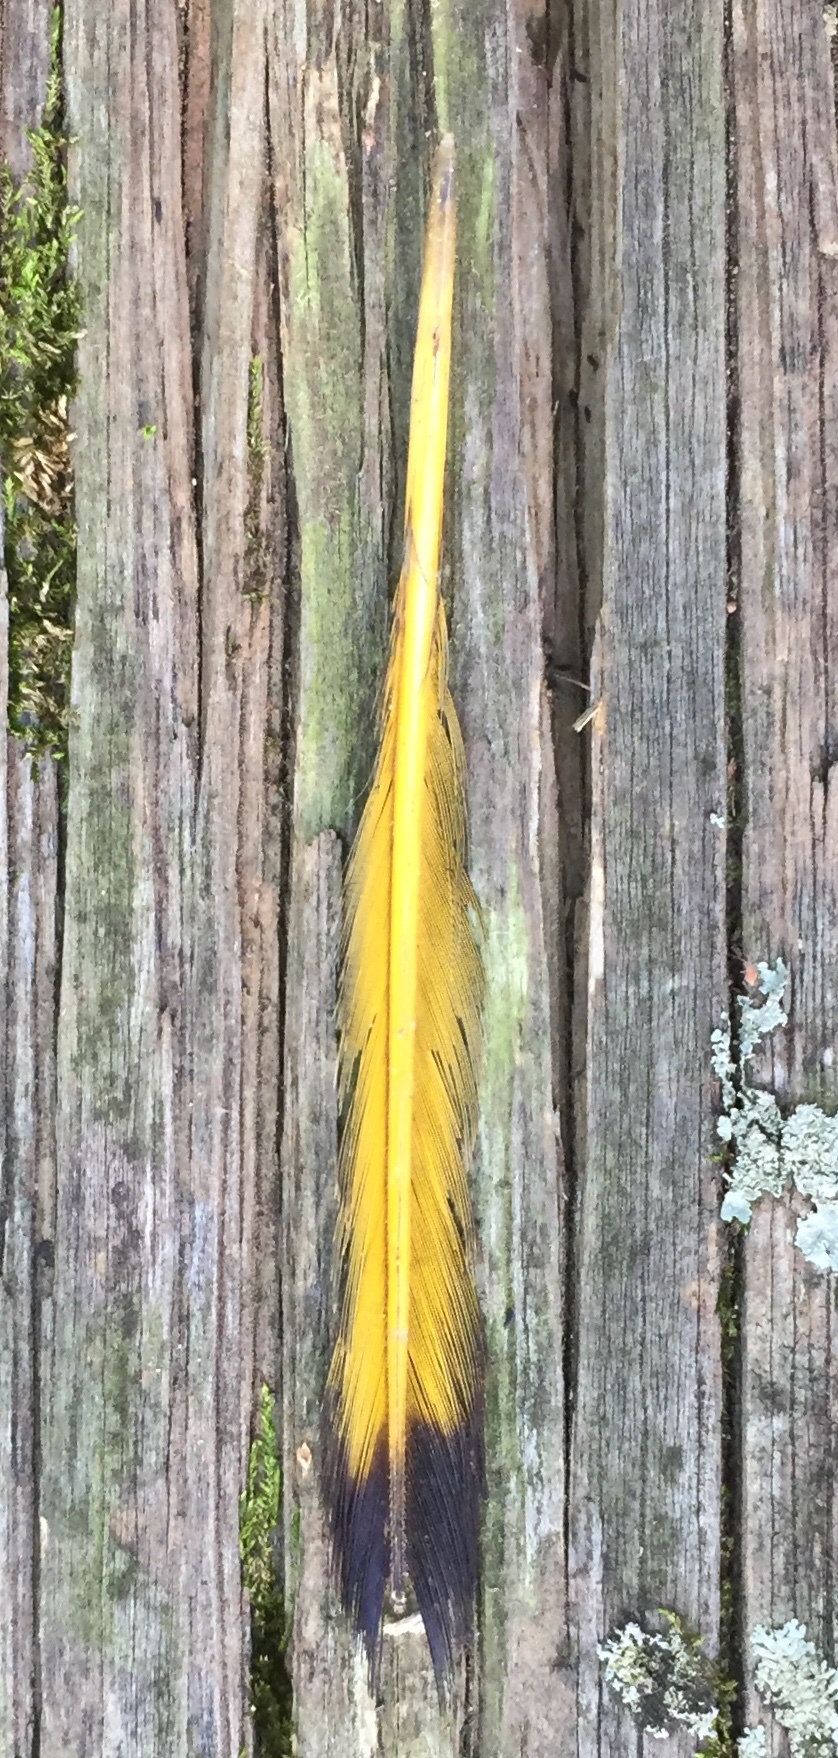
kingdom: Animalia
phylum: Chordata
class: Aves
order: Piciformes
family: Picidae
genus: Colaptes
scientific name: Colaptes auratus
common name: Northern flicker
